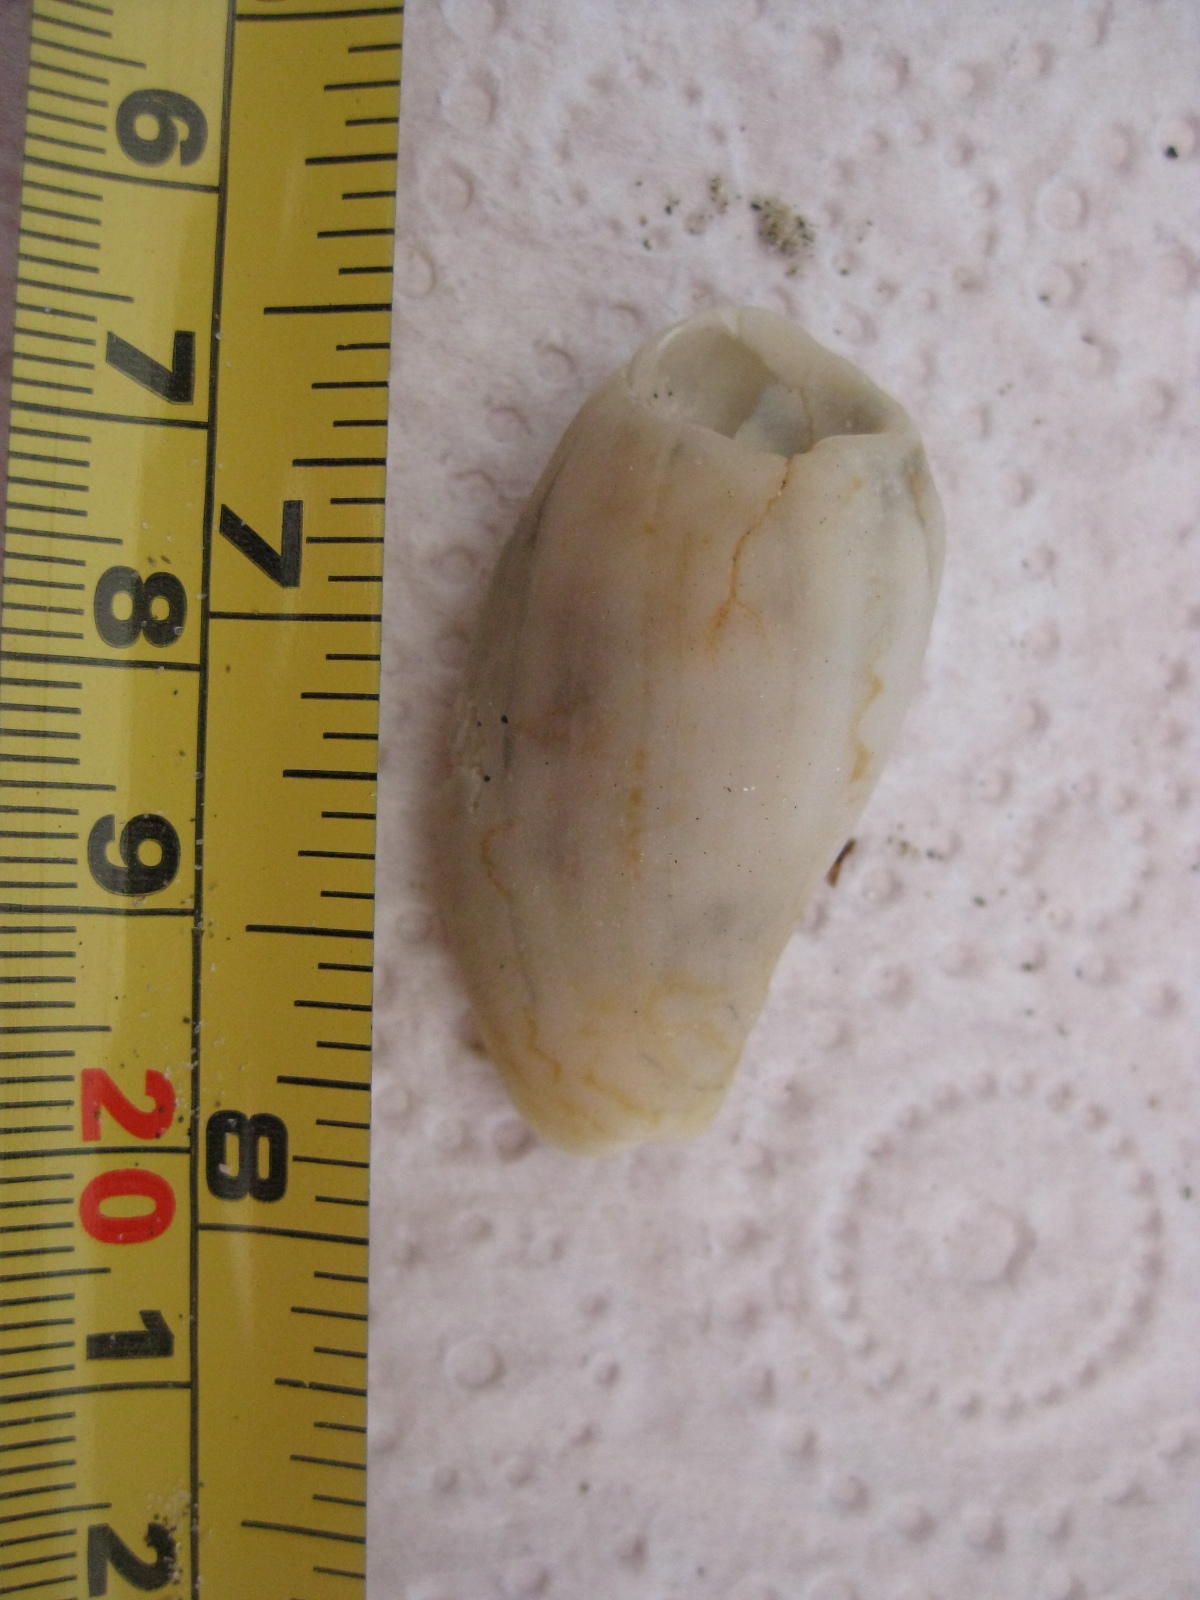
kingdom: Animalia
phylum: Mollusca
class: Gastropoda
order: Neogastropoda
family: Volutidae
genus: Alcithoe
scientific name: Alcithoe fusus
